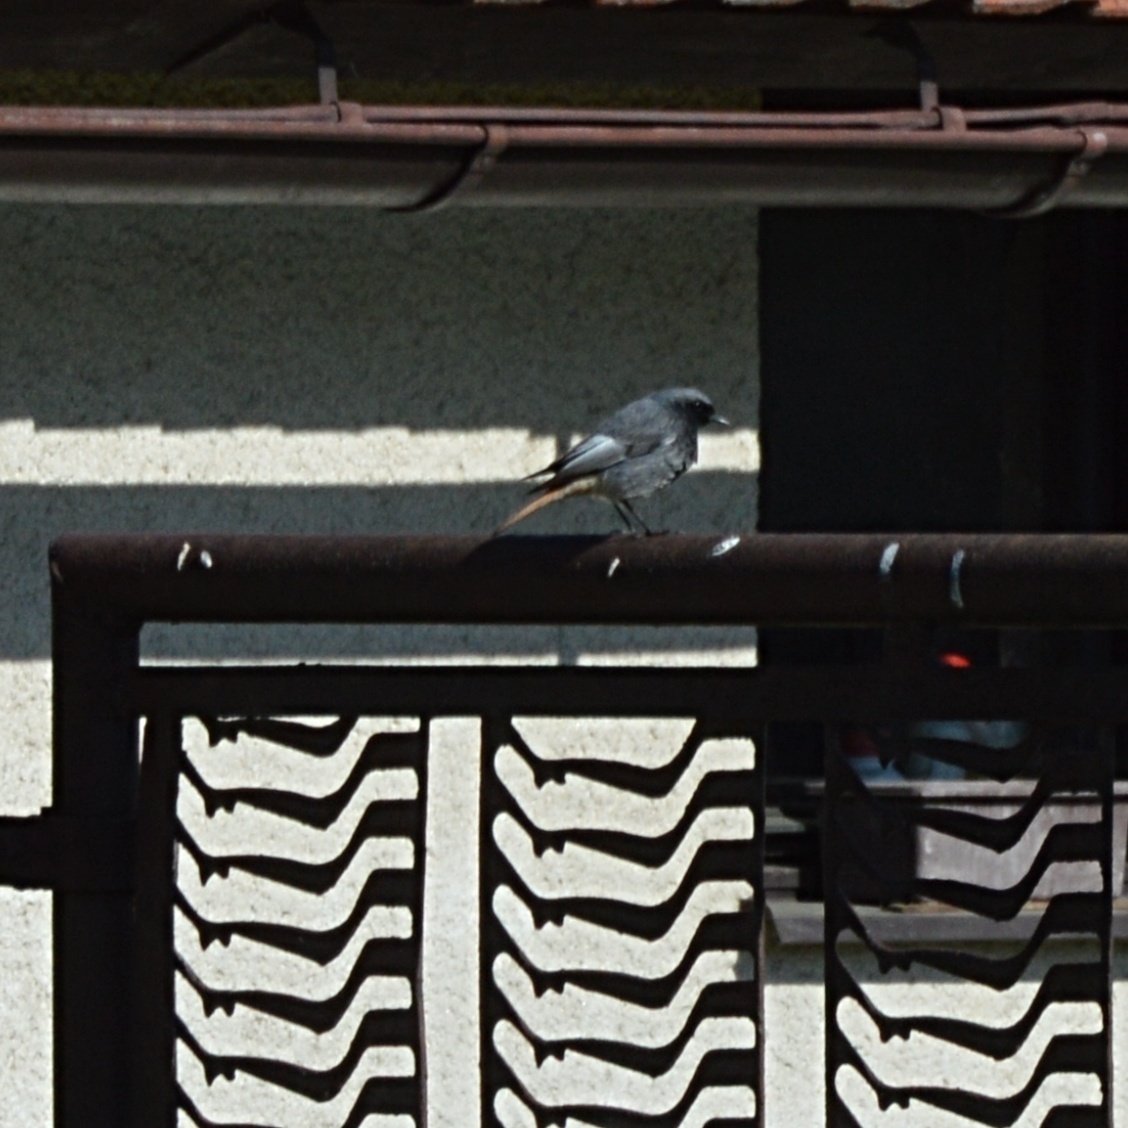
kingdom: Animalia
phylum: Chordata
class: Aves
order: Passeriformes
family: Muscicapidae
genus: Phoenicurus
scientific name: Phoenicurus ochruros
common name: Black redstart
